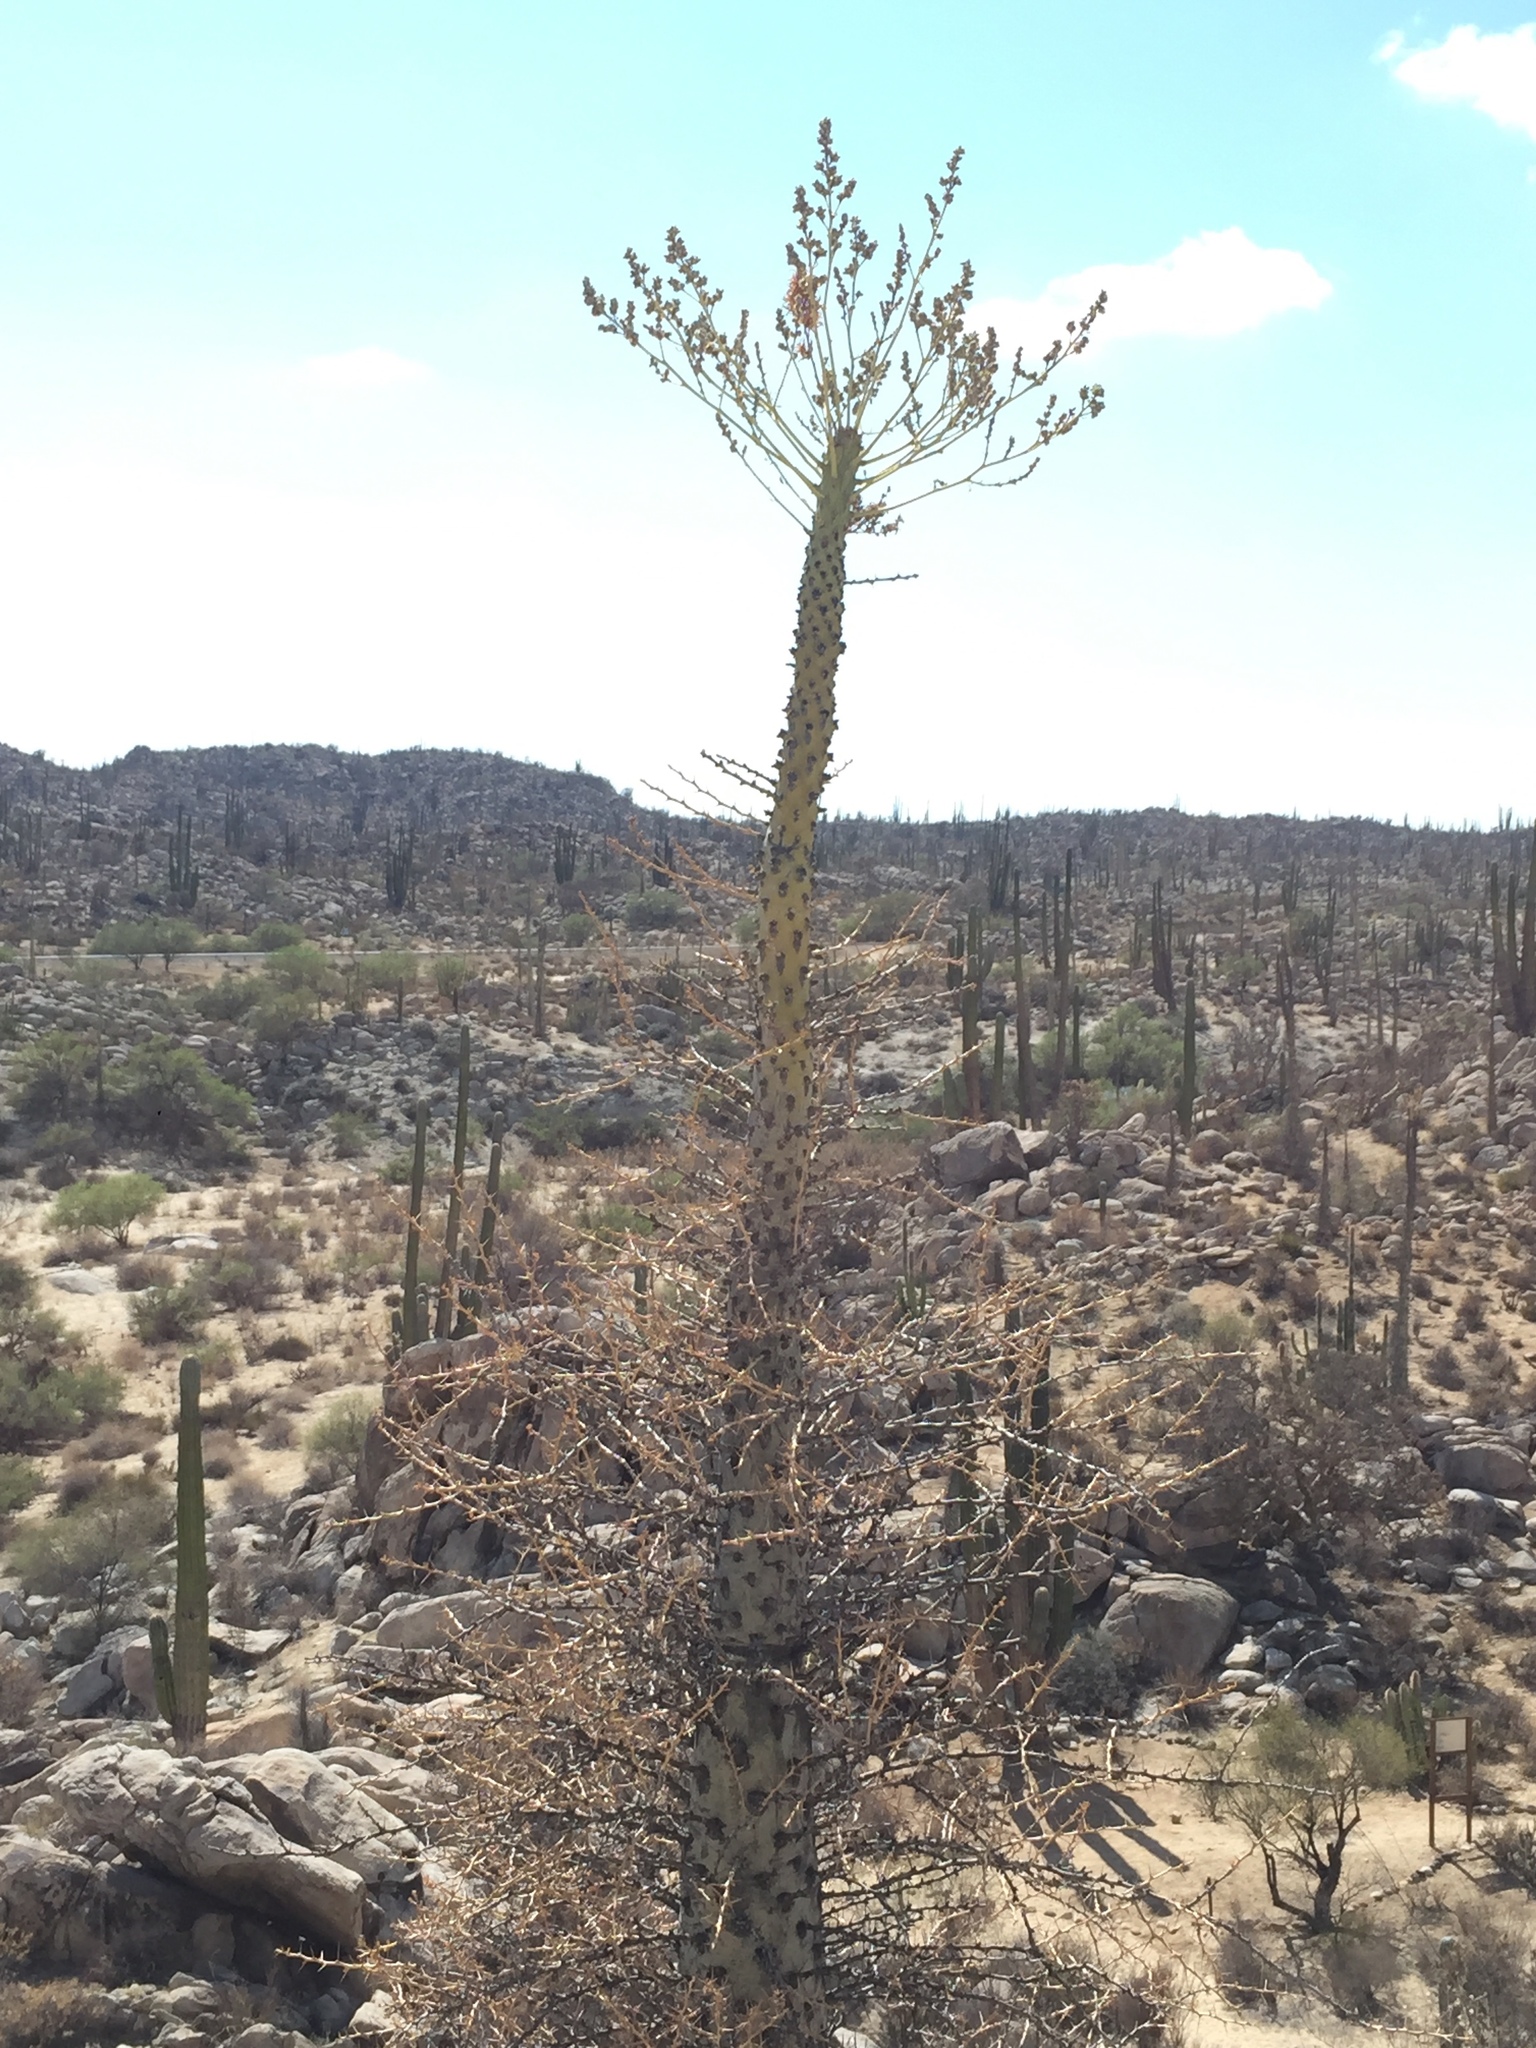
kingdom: Plantae
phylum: Tracheophyta
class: Magnoliopsida
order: Ericales
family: Fouquieriaceae
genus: Fouquieria
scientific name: Fouquieria columnaris
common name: Boojumtree
